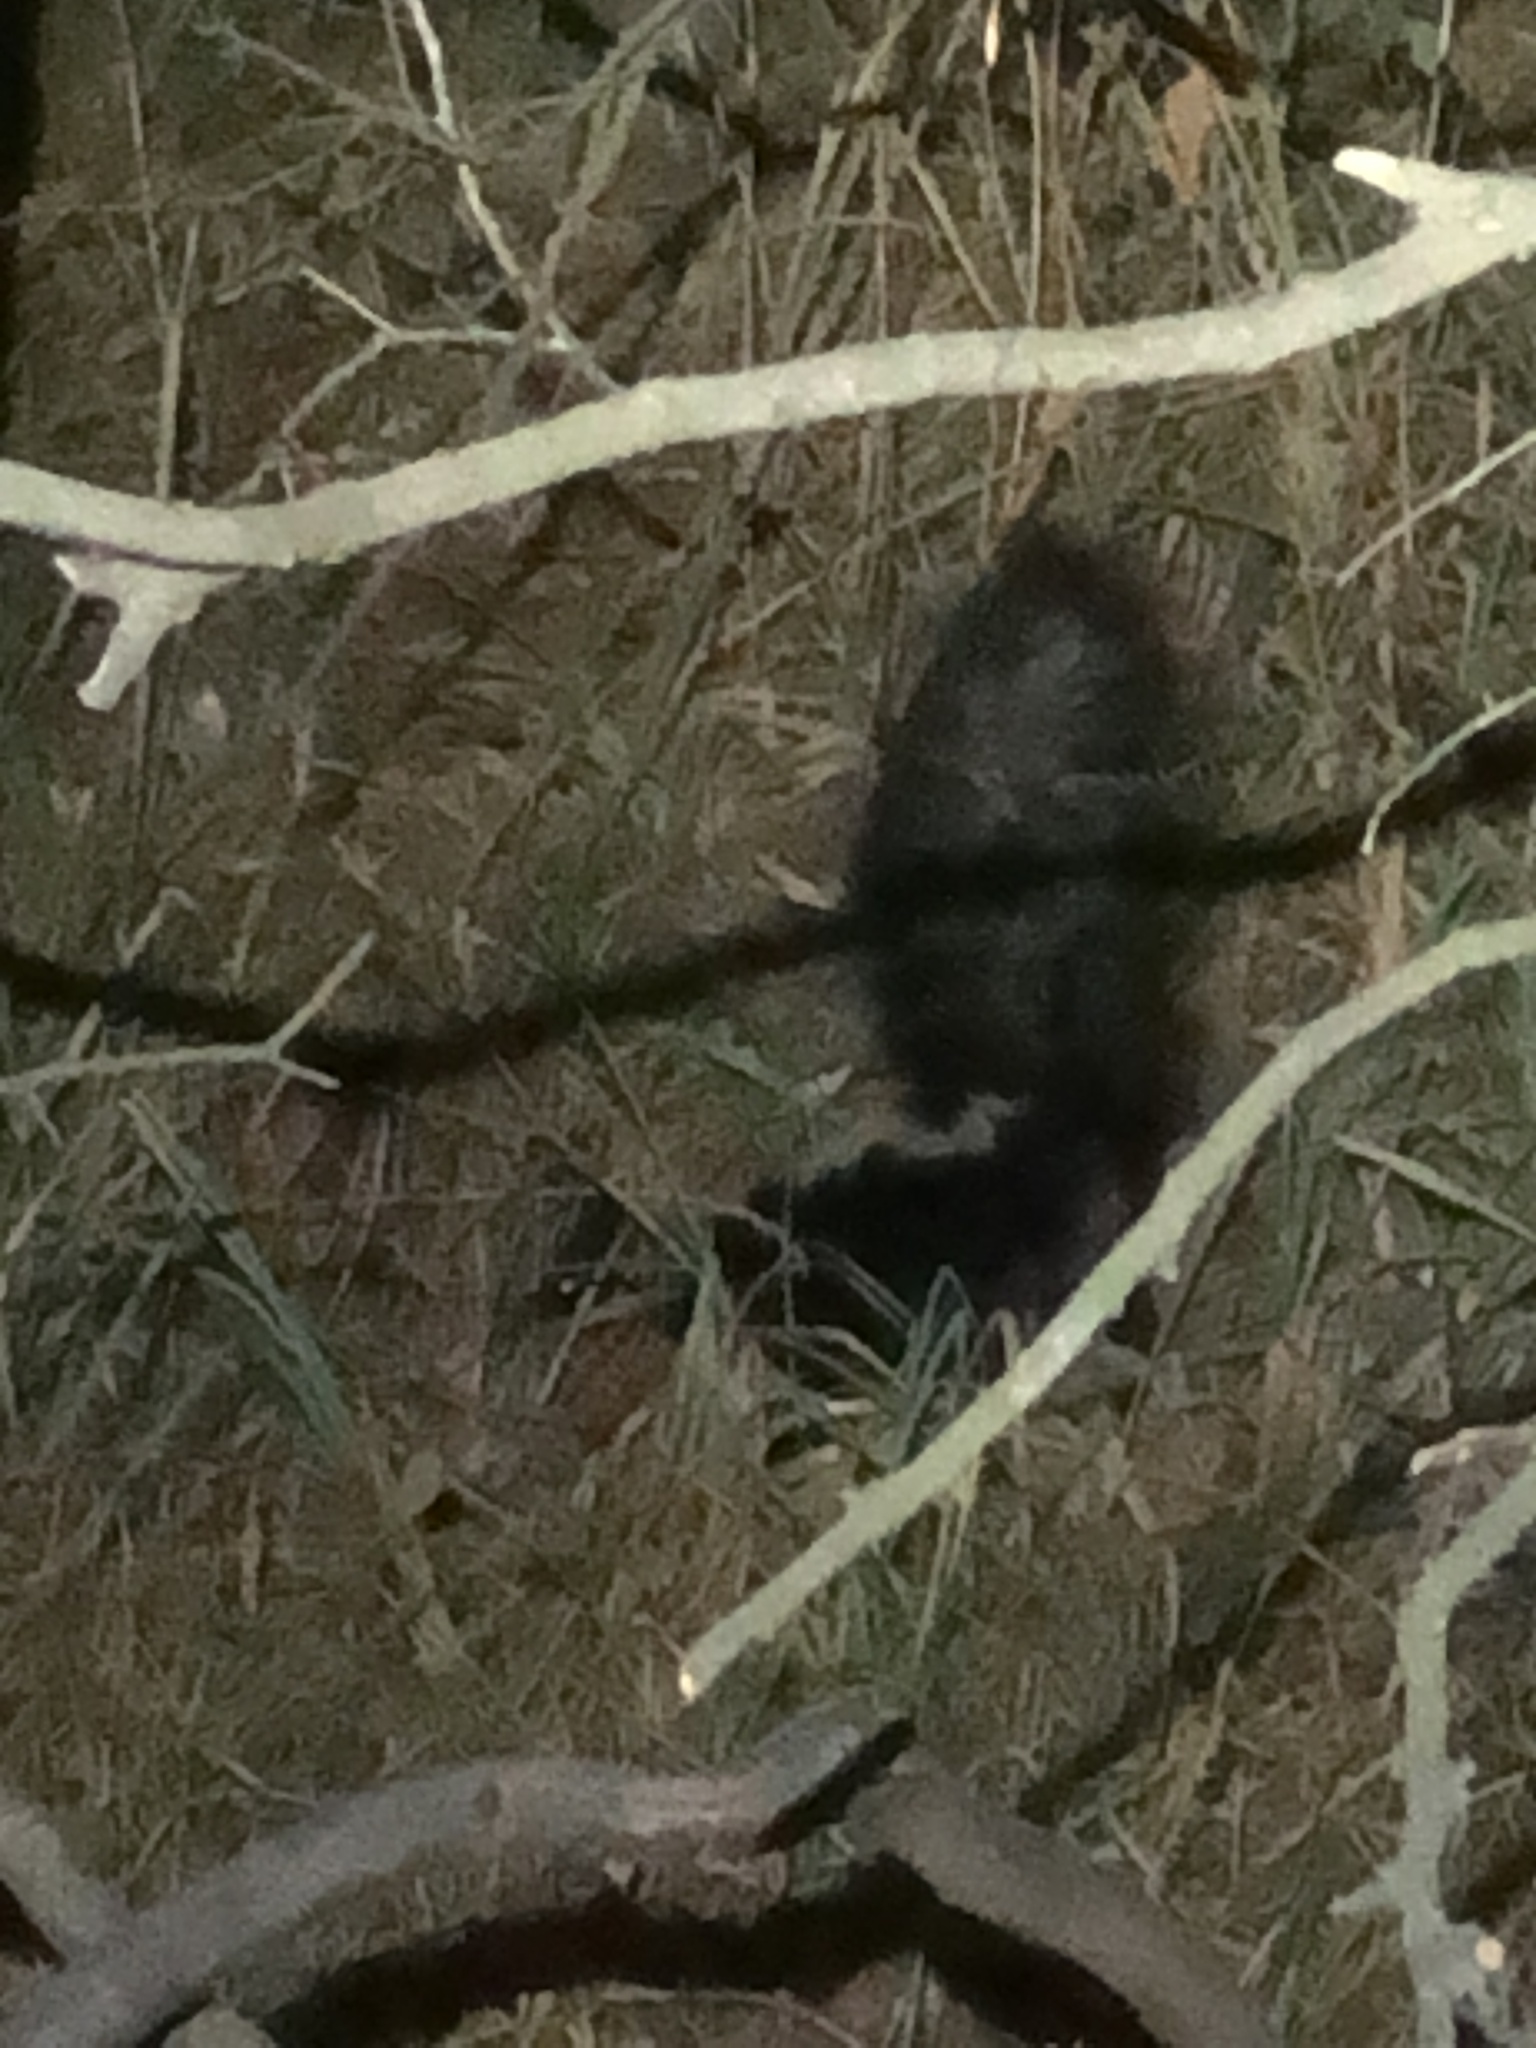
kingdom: Animalia
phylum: Chordata
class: Mammalia
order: Carnivora
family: Mephitidae
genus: Mephitis
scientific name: Mephitis mephitis
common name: Striped skunk
